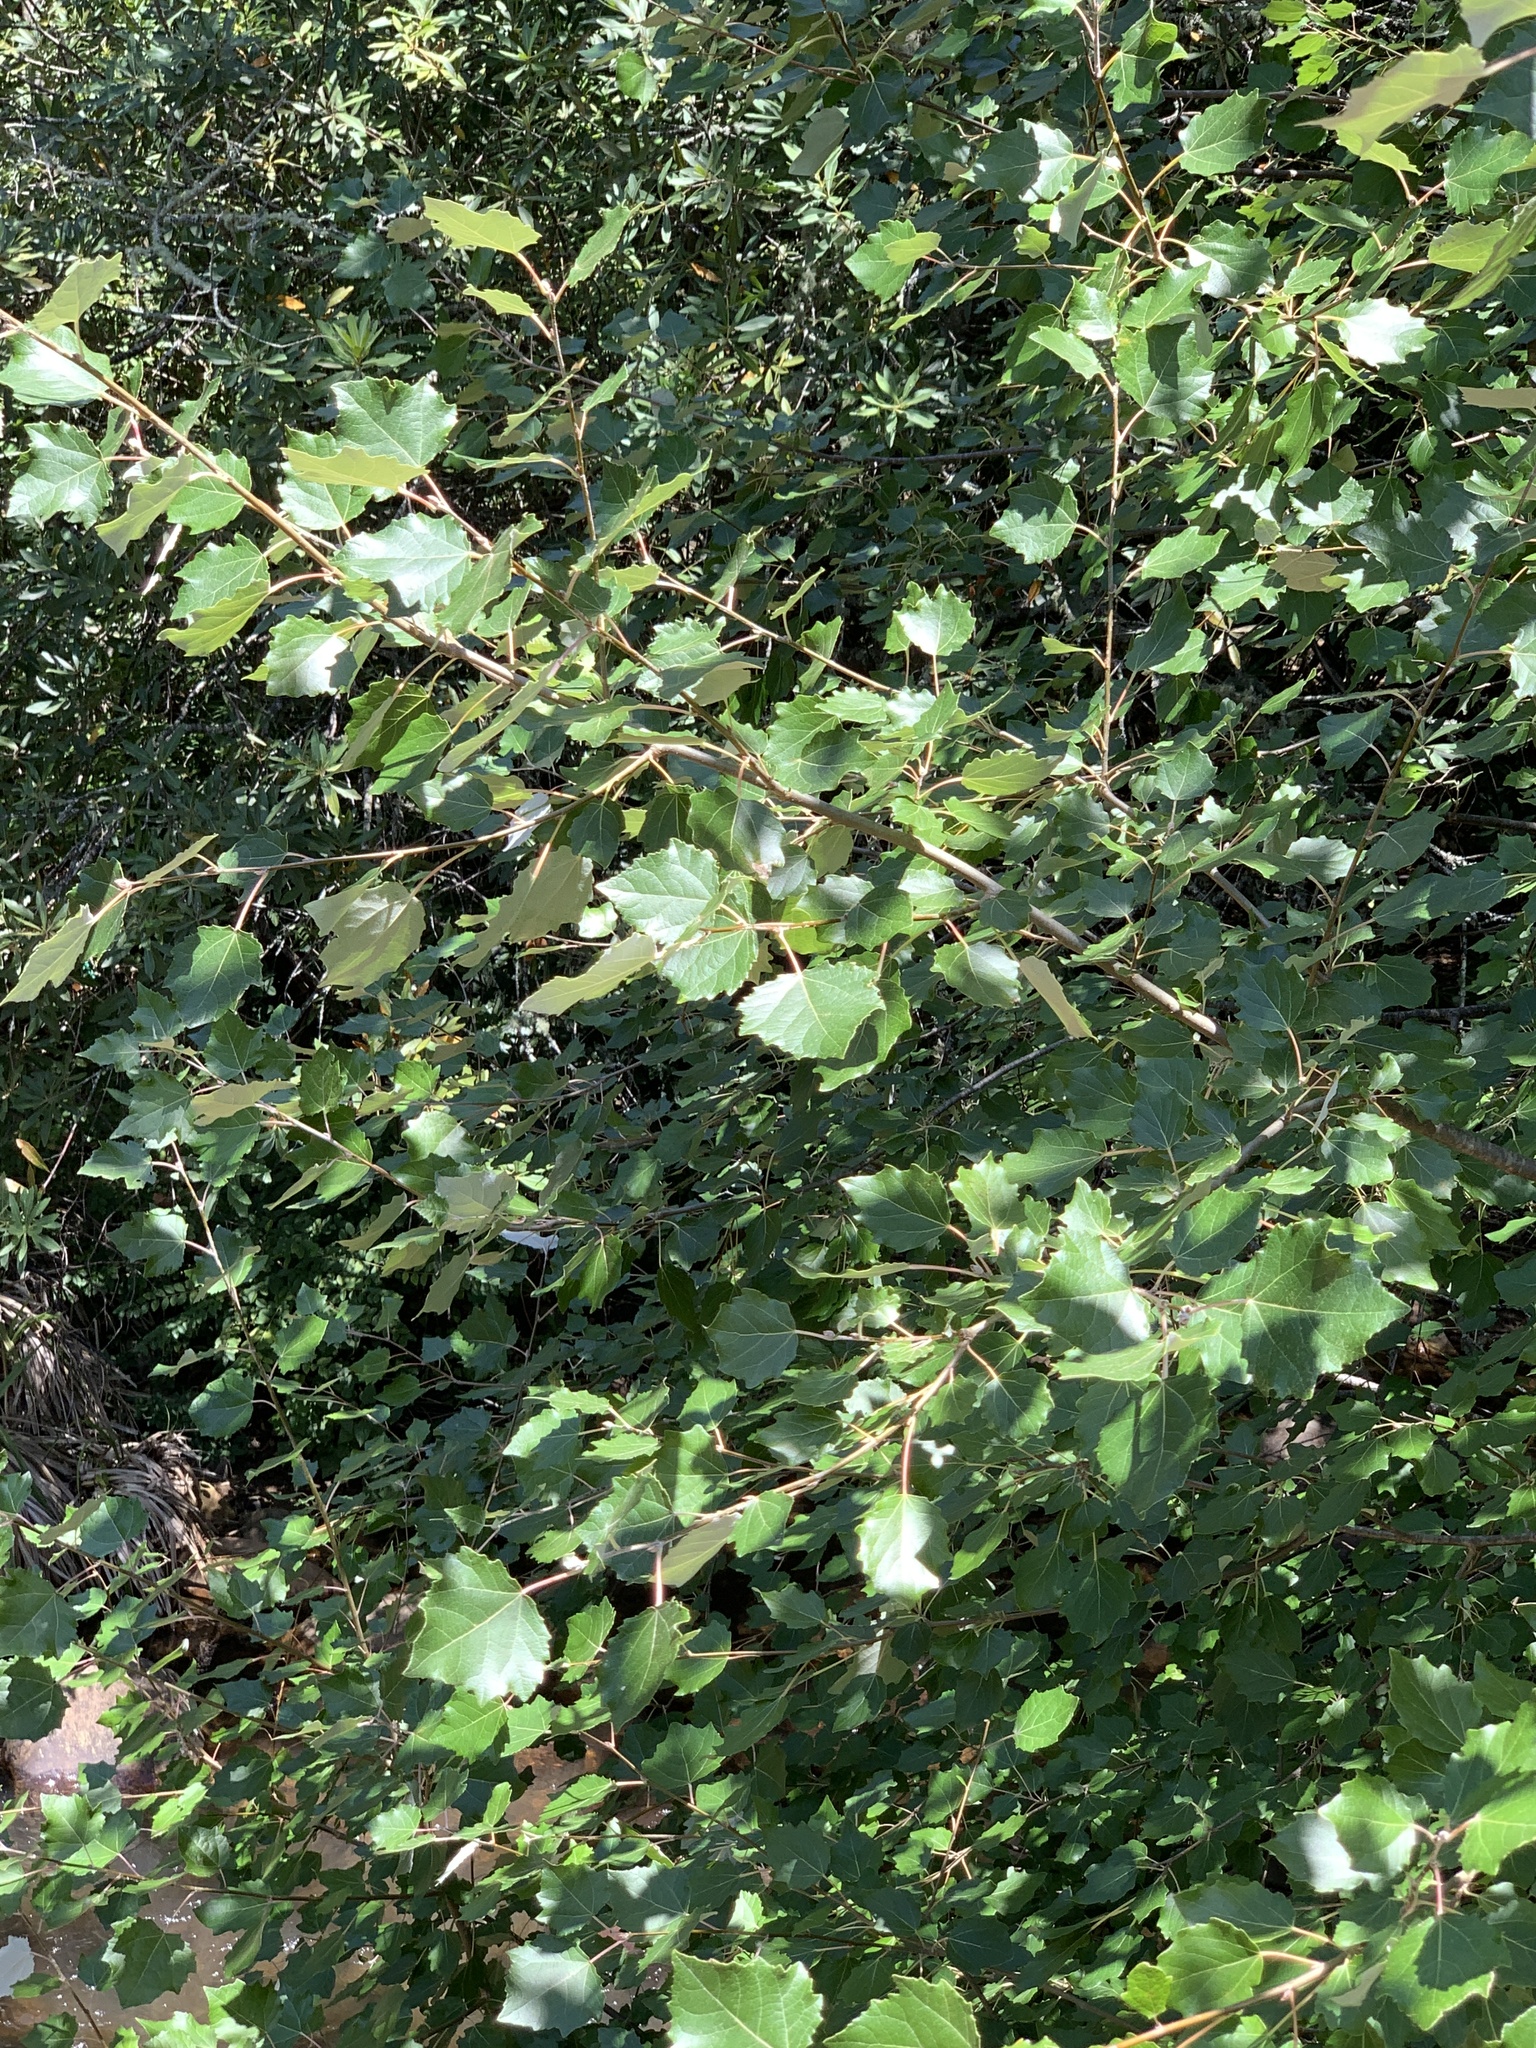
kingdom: Plantae
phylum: Tracheophyta
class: Magnoliopsida
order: Malpighiales
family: Salicaceae
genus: Populus
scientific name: Populus canescens
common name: Gray poplar
